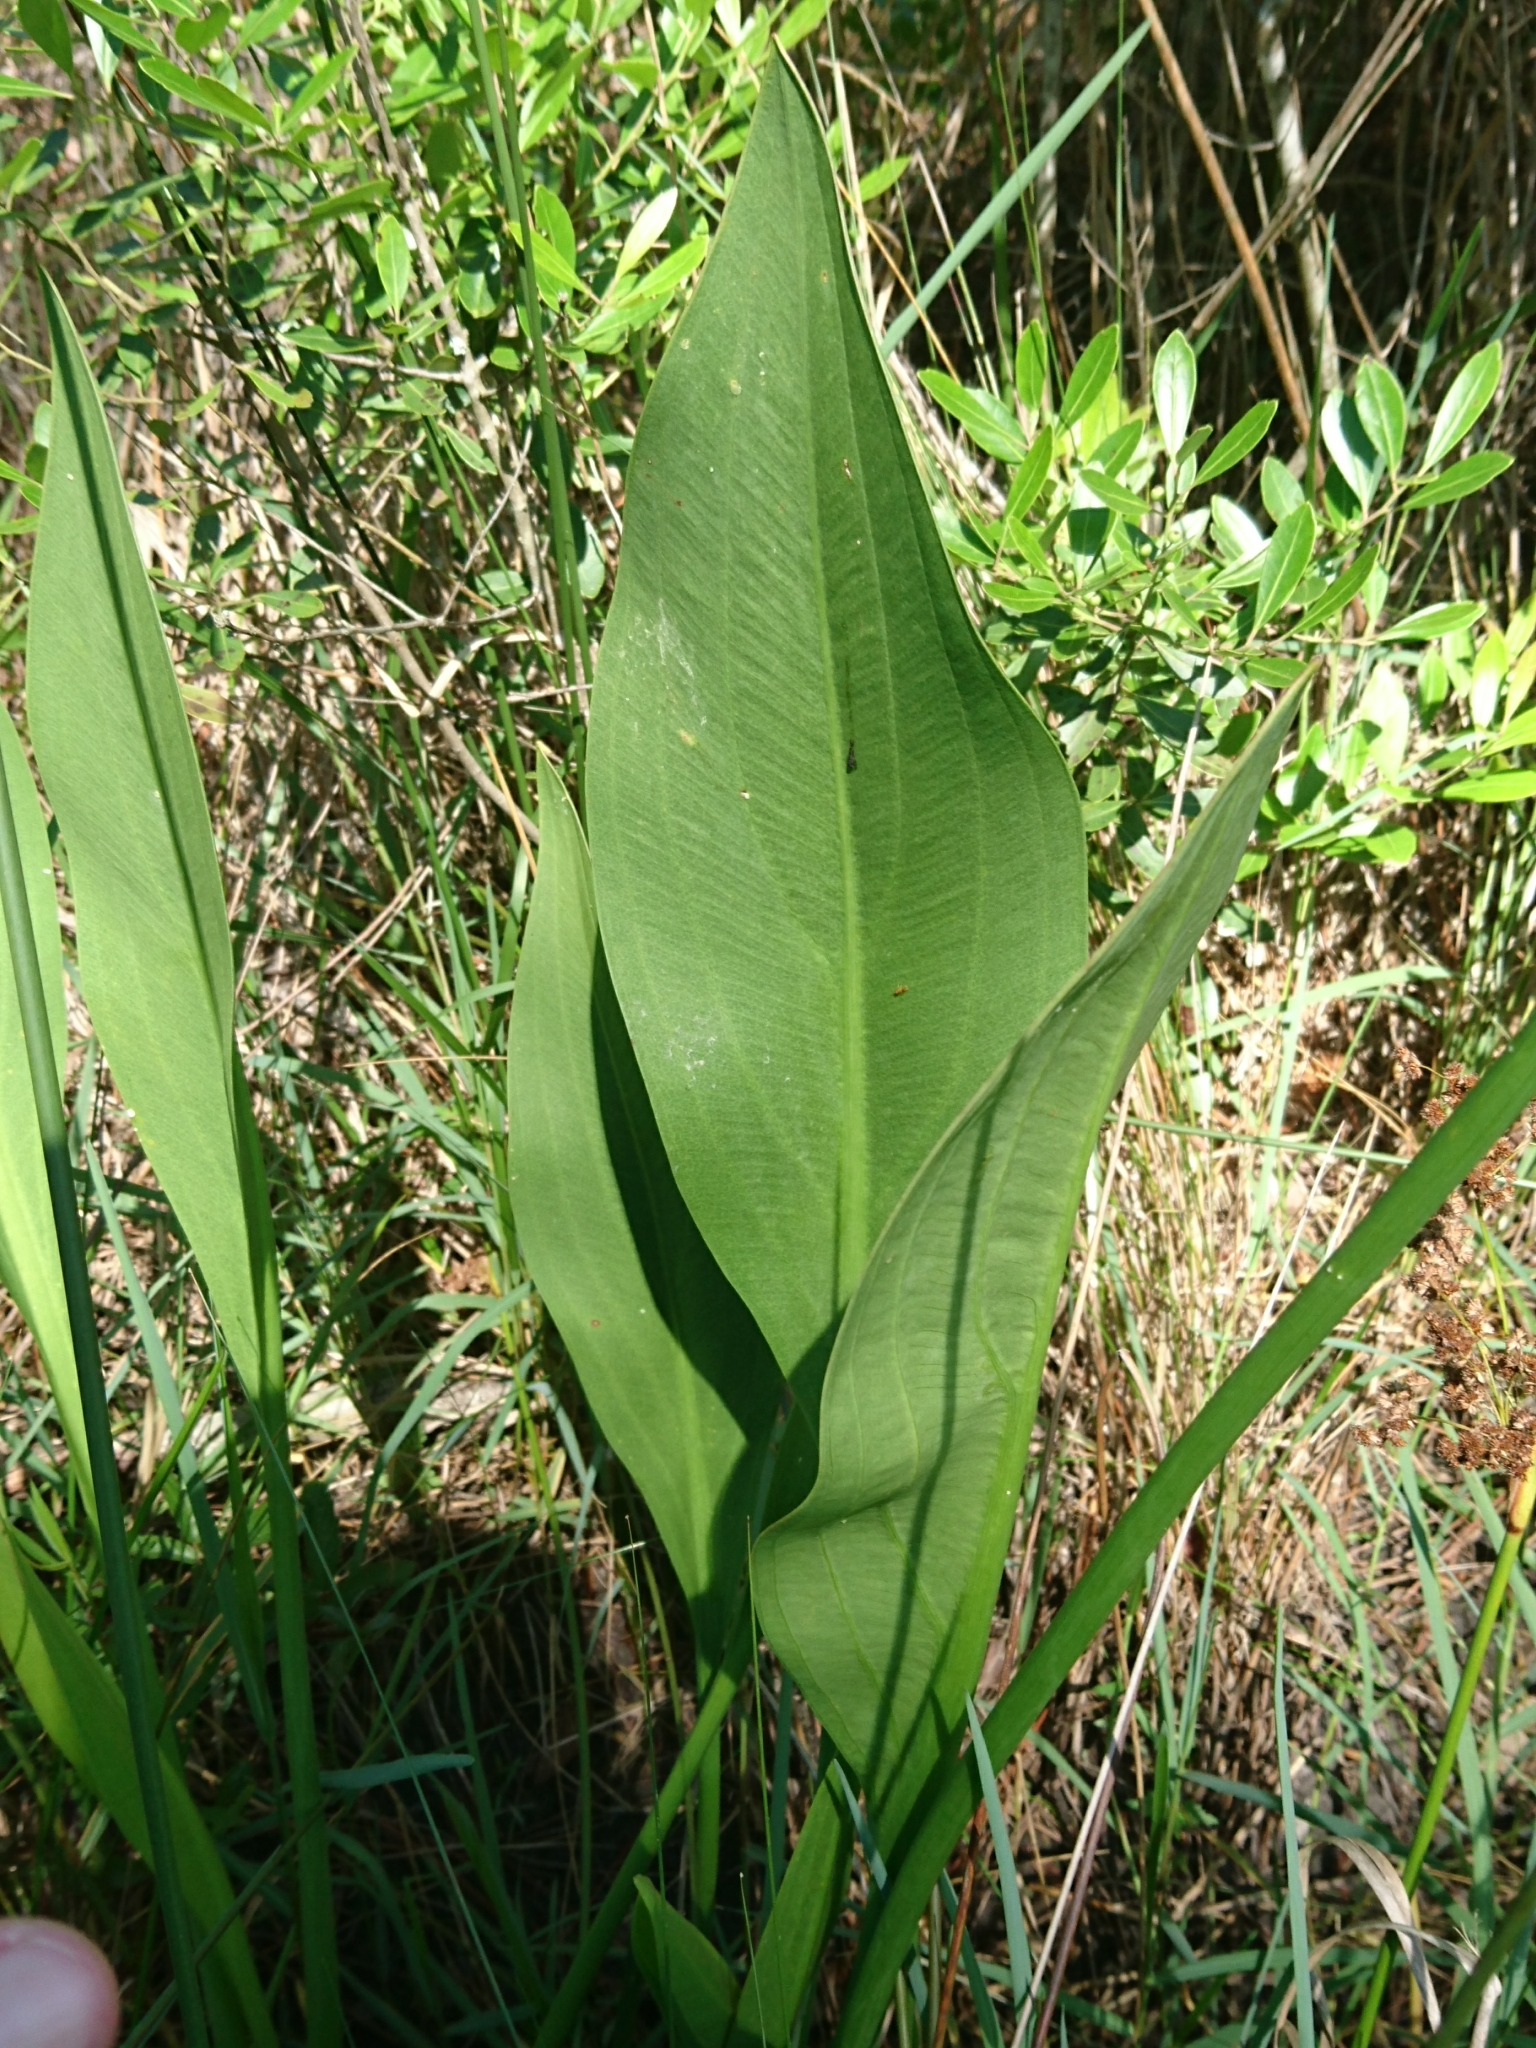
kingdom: Plantae
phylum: Tracheophyta
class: Liliopsida
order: Alismatales
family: Alismataceae
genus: Sagittaria
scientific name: Sagittaria lancifolia
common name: Lance-leaf arrowhead
